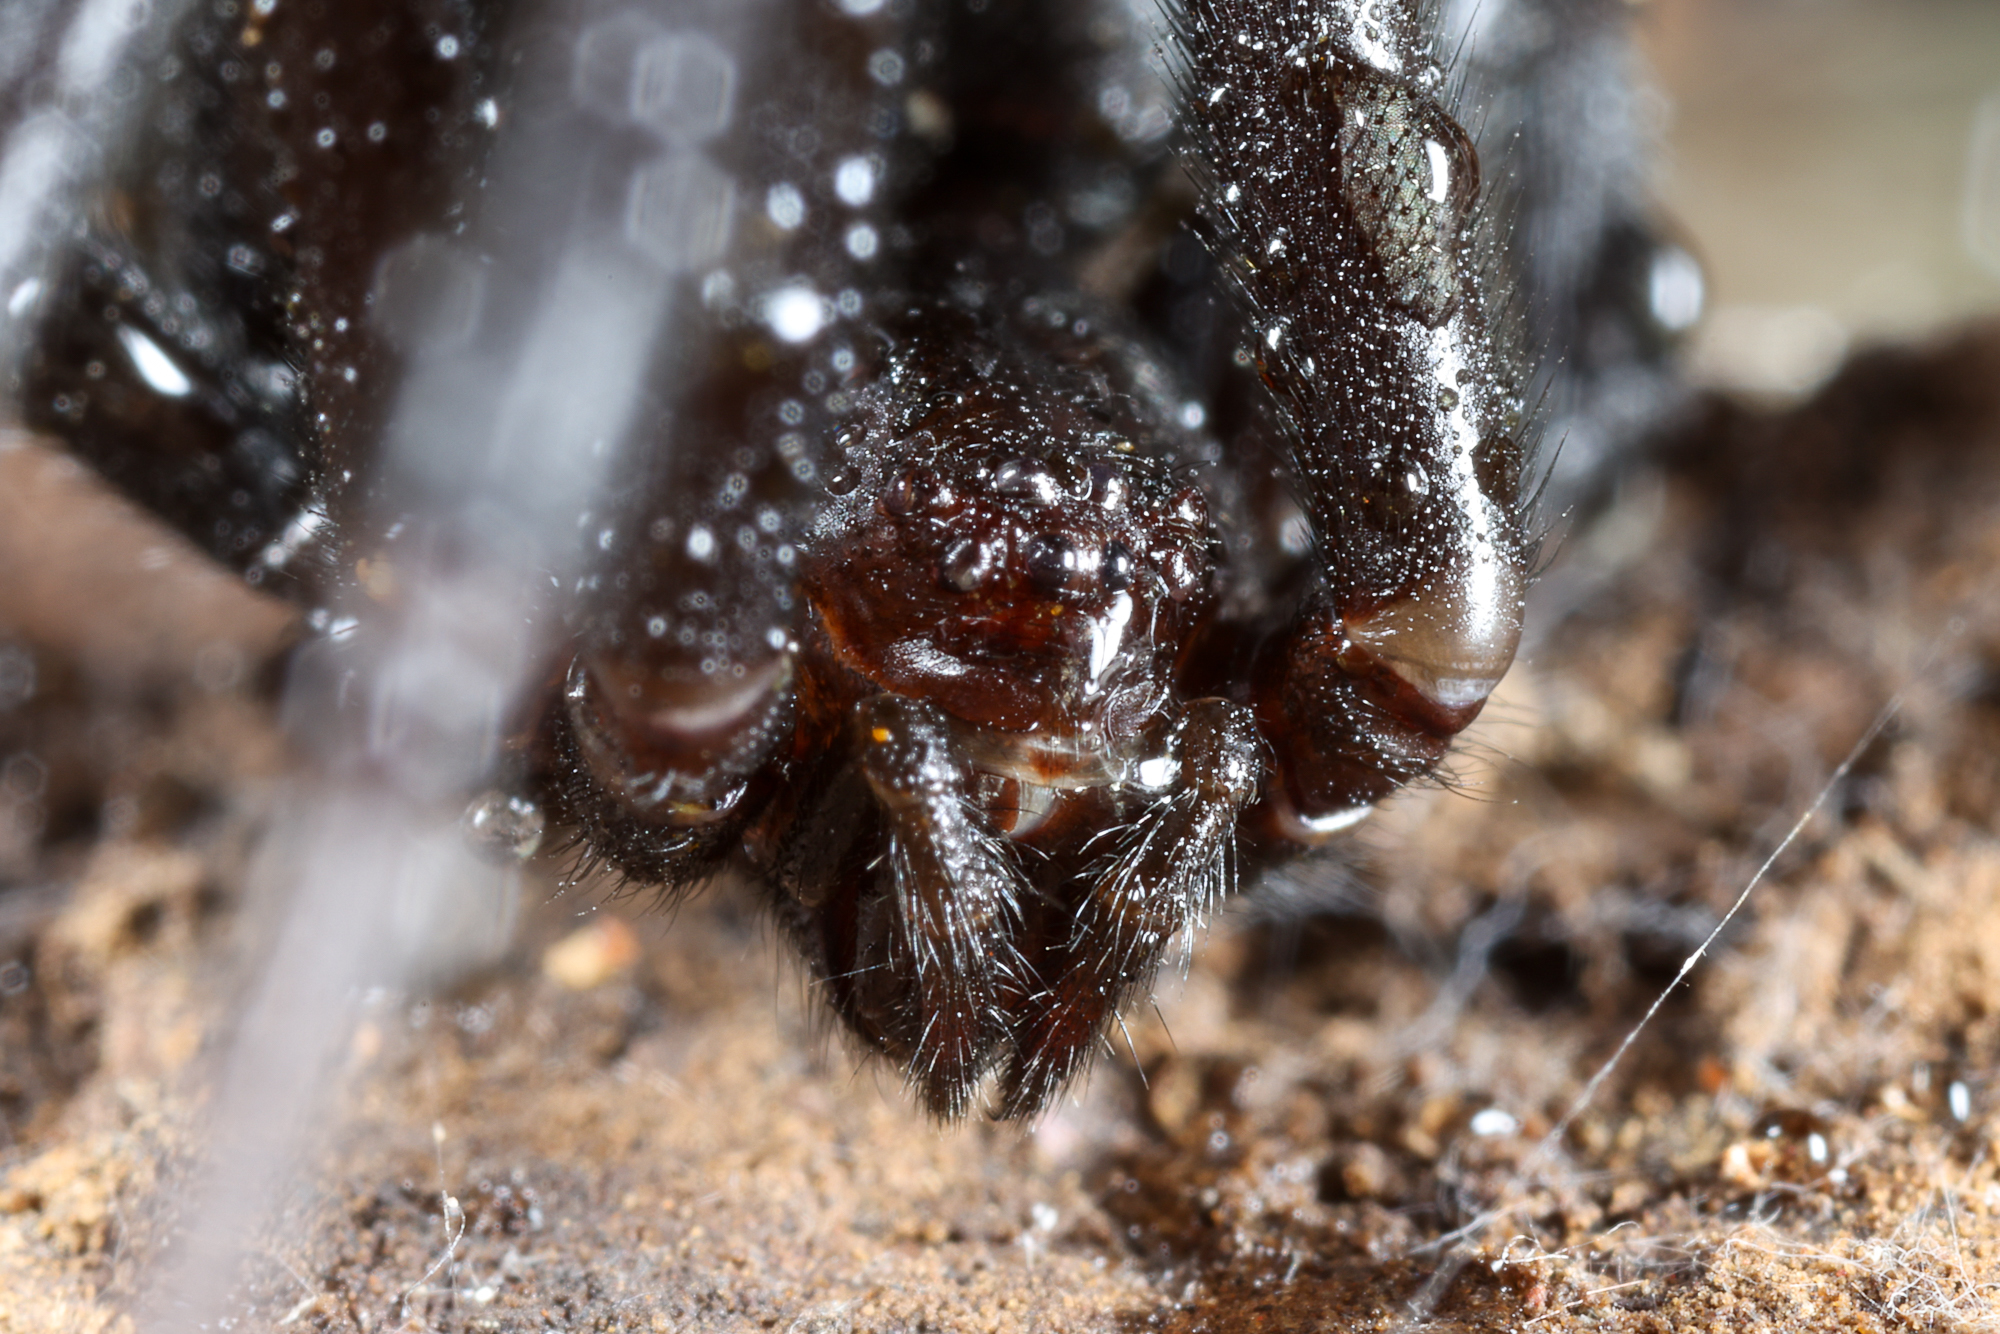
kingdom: Animalia
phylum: Arthropoda
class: Arachnida
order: Araneae
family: Theridiidae
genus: Latrodectus
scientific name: Latrodectus hesperus
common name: Western black widow
